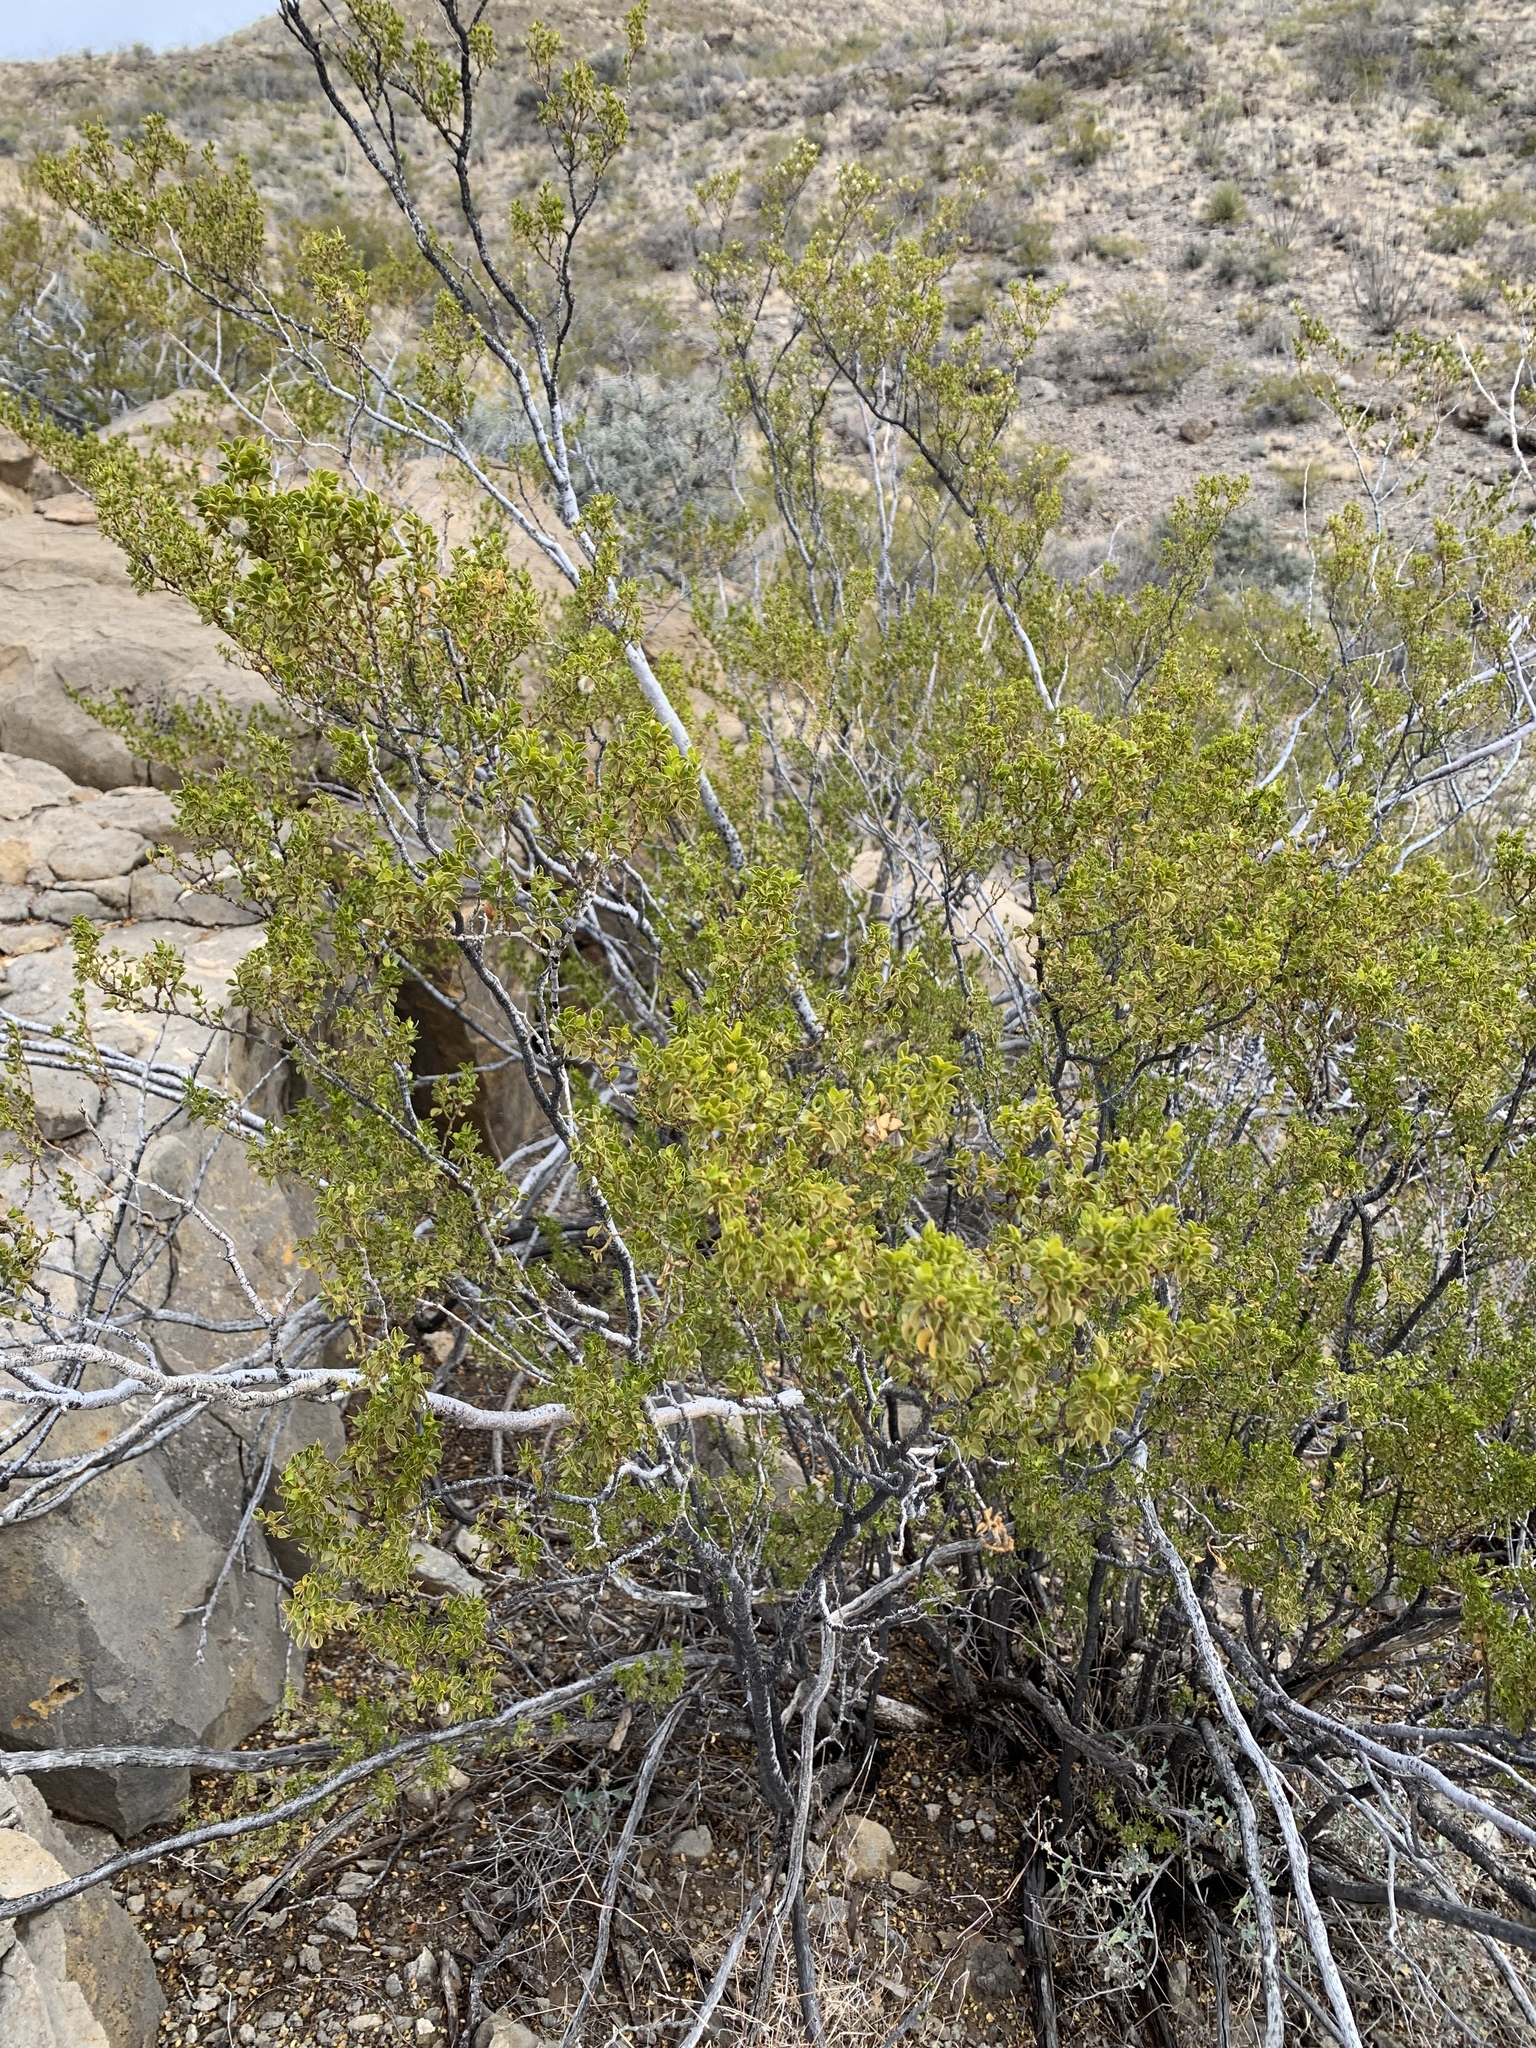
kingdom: Plantae
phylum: Tracheophyta
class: Magnoliopsida
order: Zygophyllales
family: Zygophyllaceae
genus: Larrea
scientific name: Larrea tridentata
